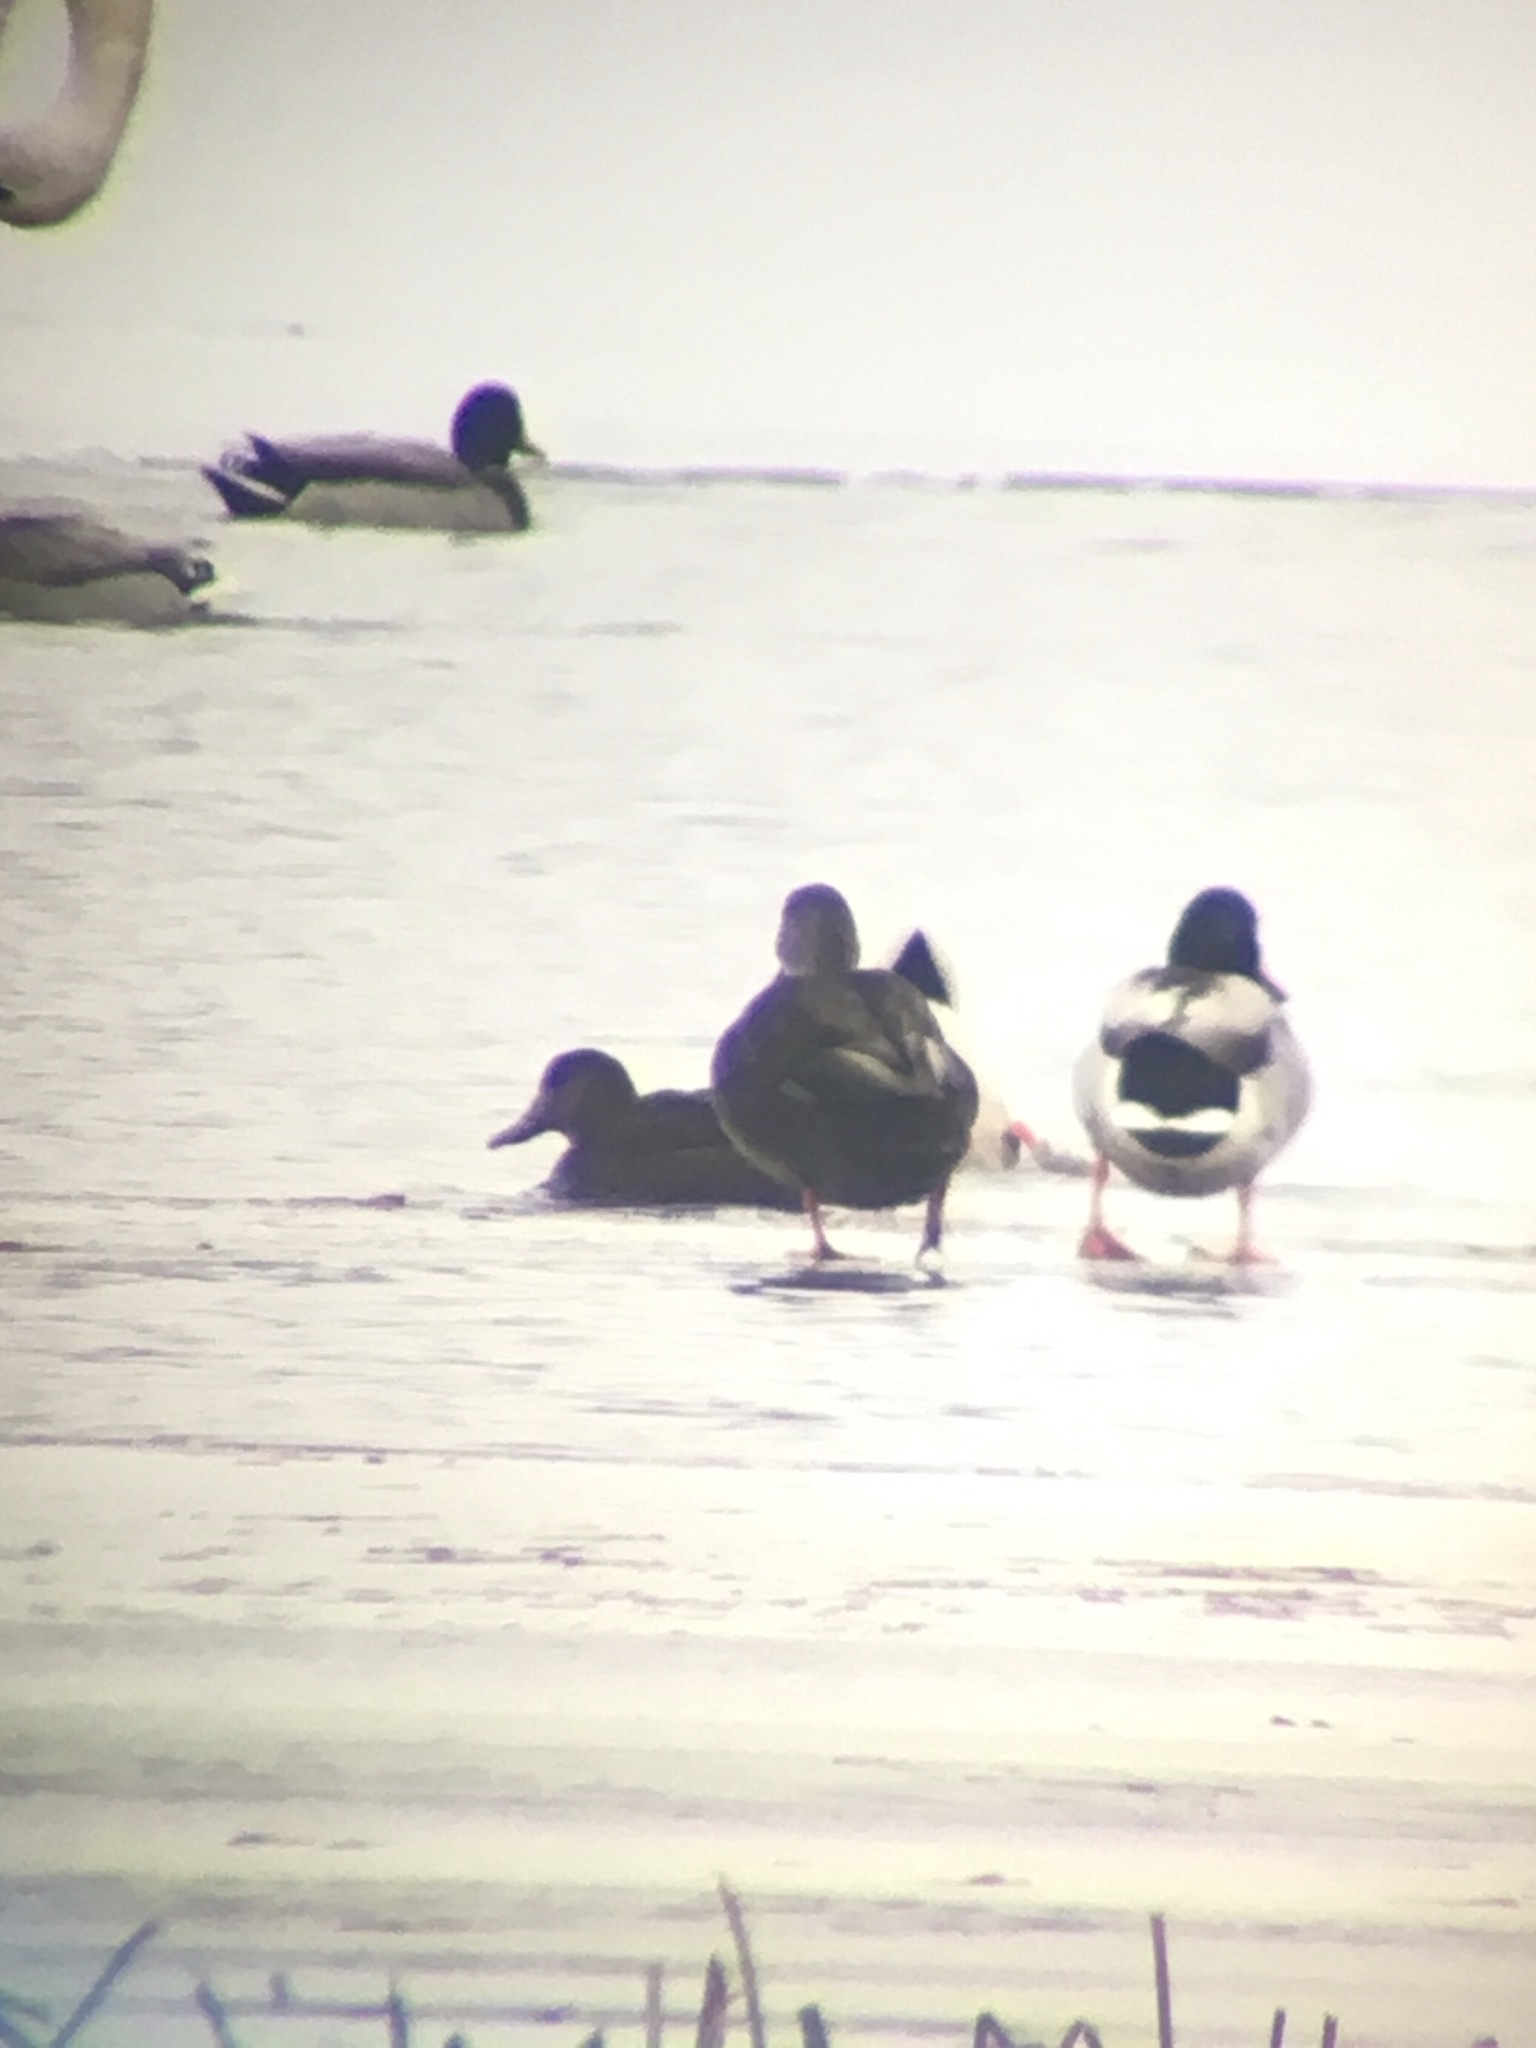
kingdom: Animalia
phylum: Chordata
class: Aves
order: Anseriformes
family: Anatidae
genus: Anas
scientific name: Anas rubripes
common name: American black duck
